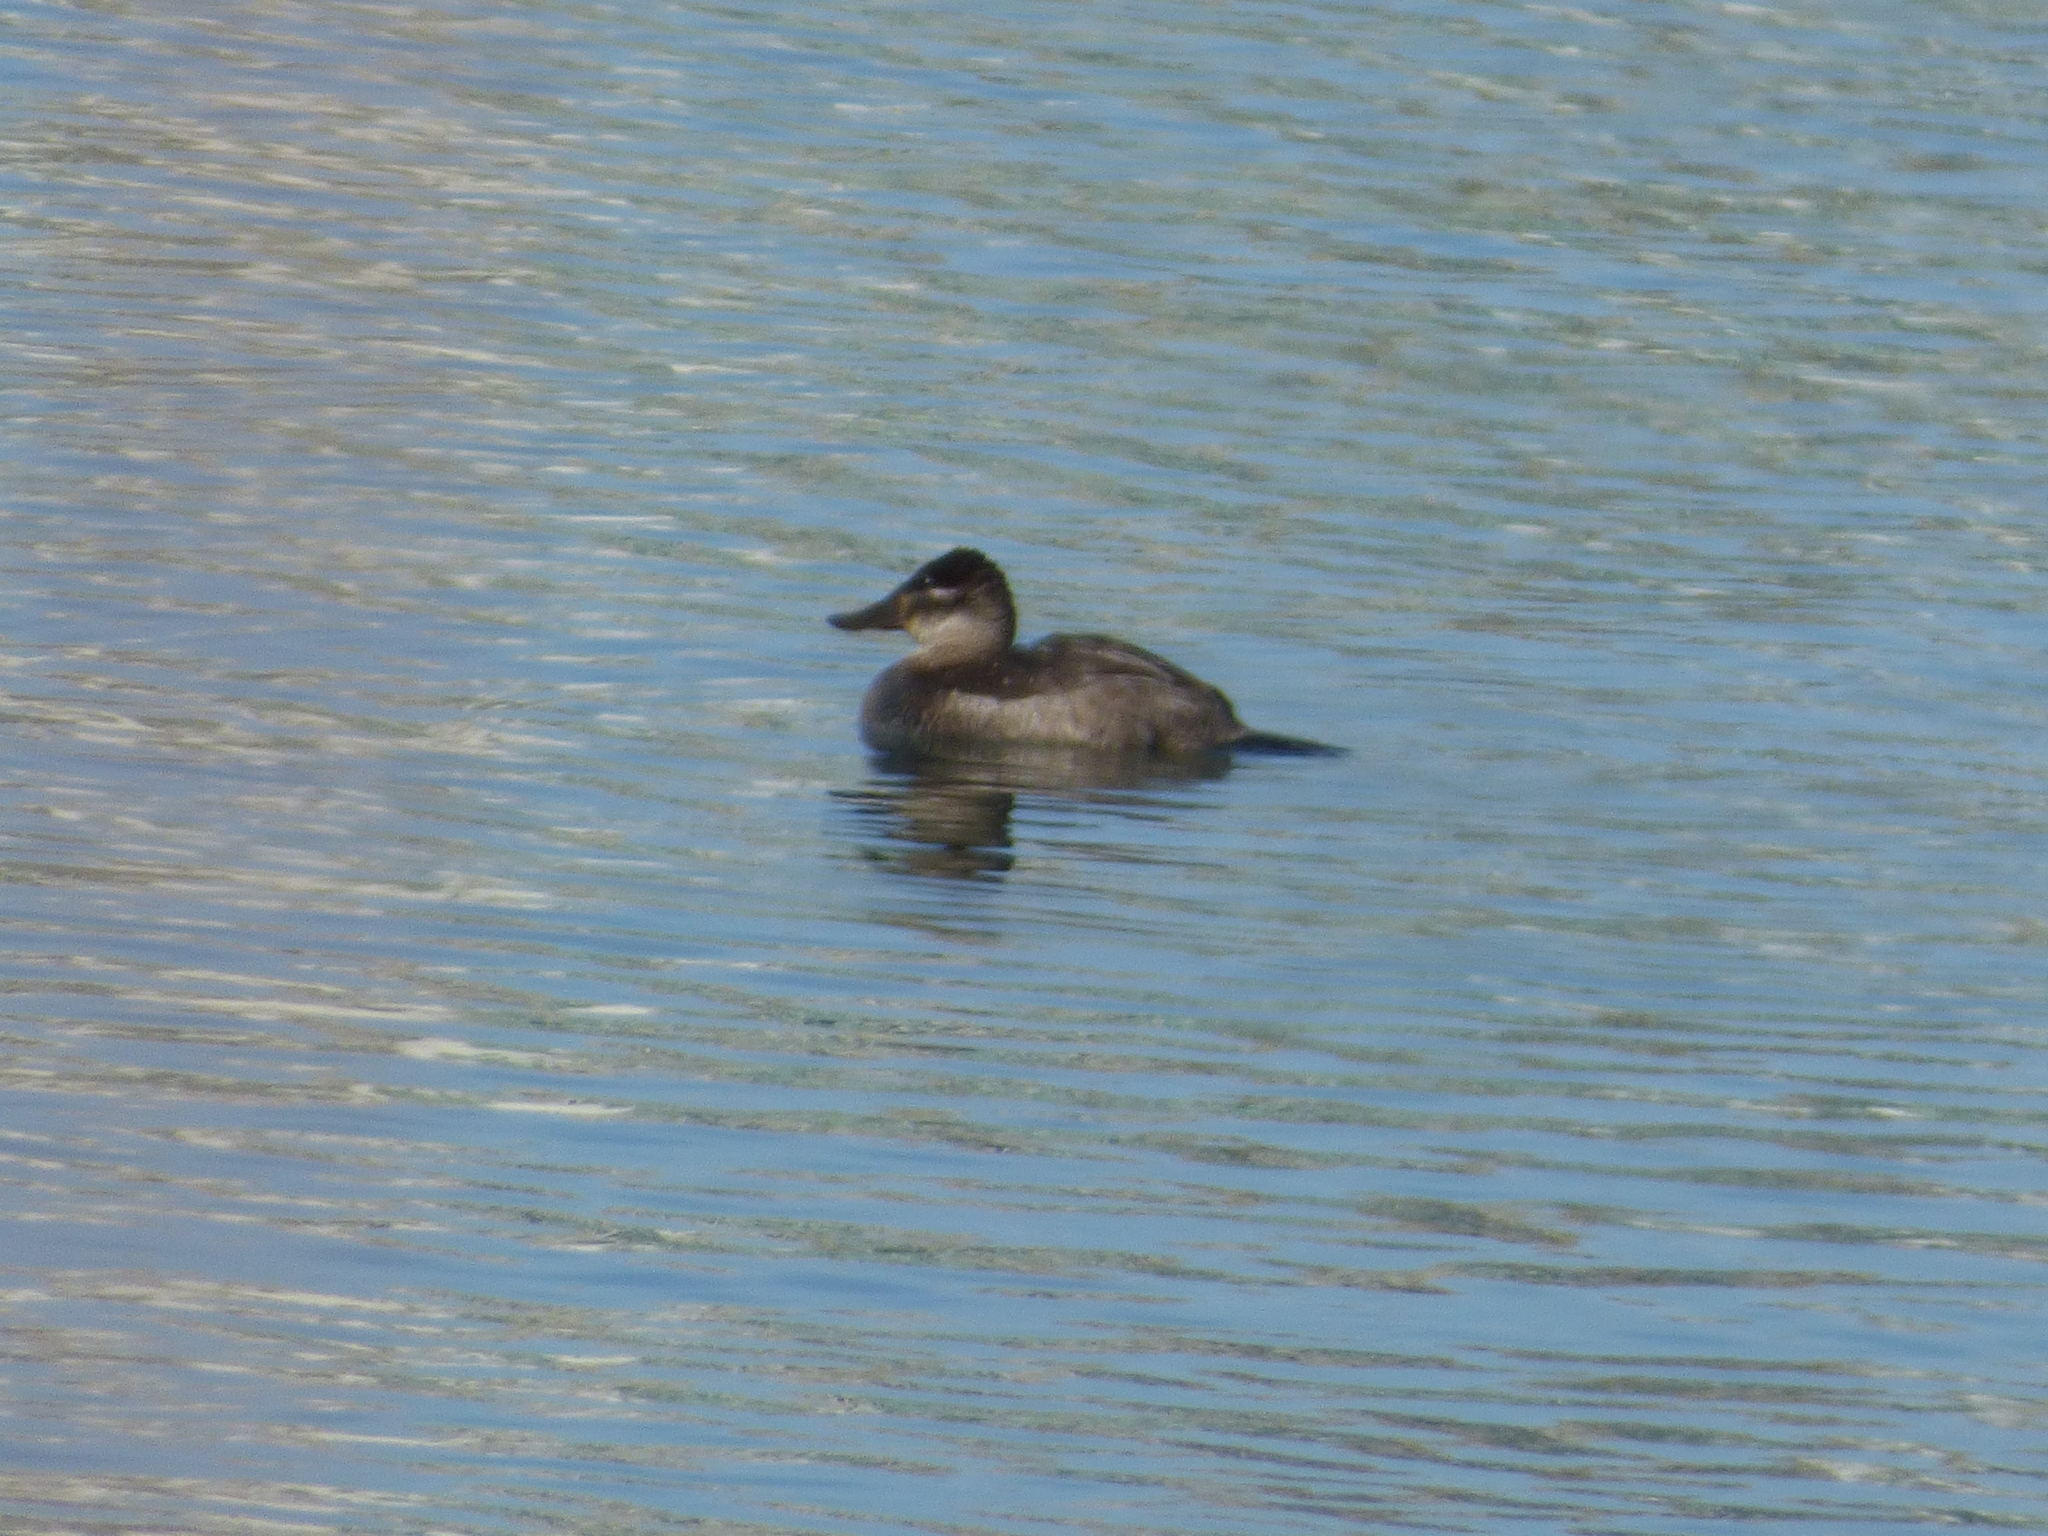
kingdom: Animalia
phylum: Chordata
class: Aves
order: Anseriformes
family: Anatidae
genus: Oxyura
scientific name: Oxyura jamaicensis
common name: Ruddy duck
